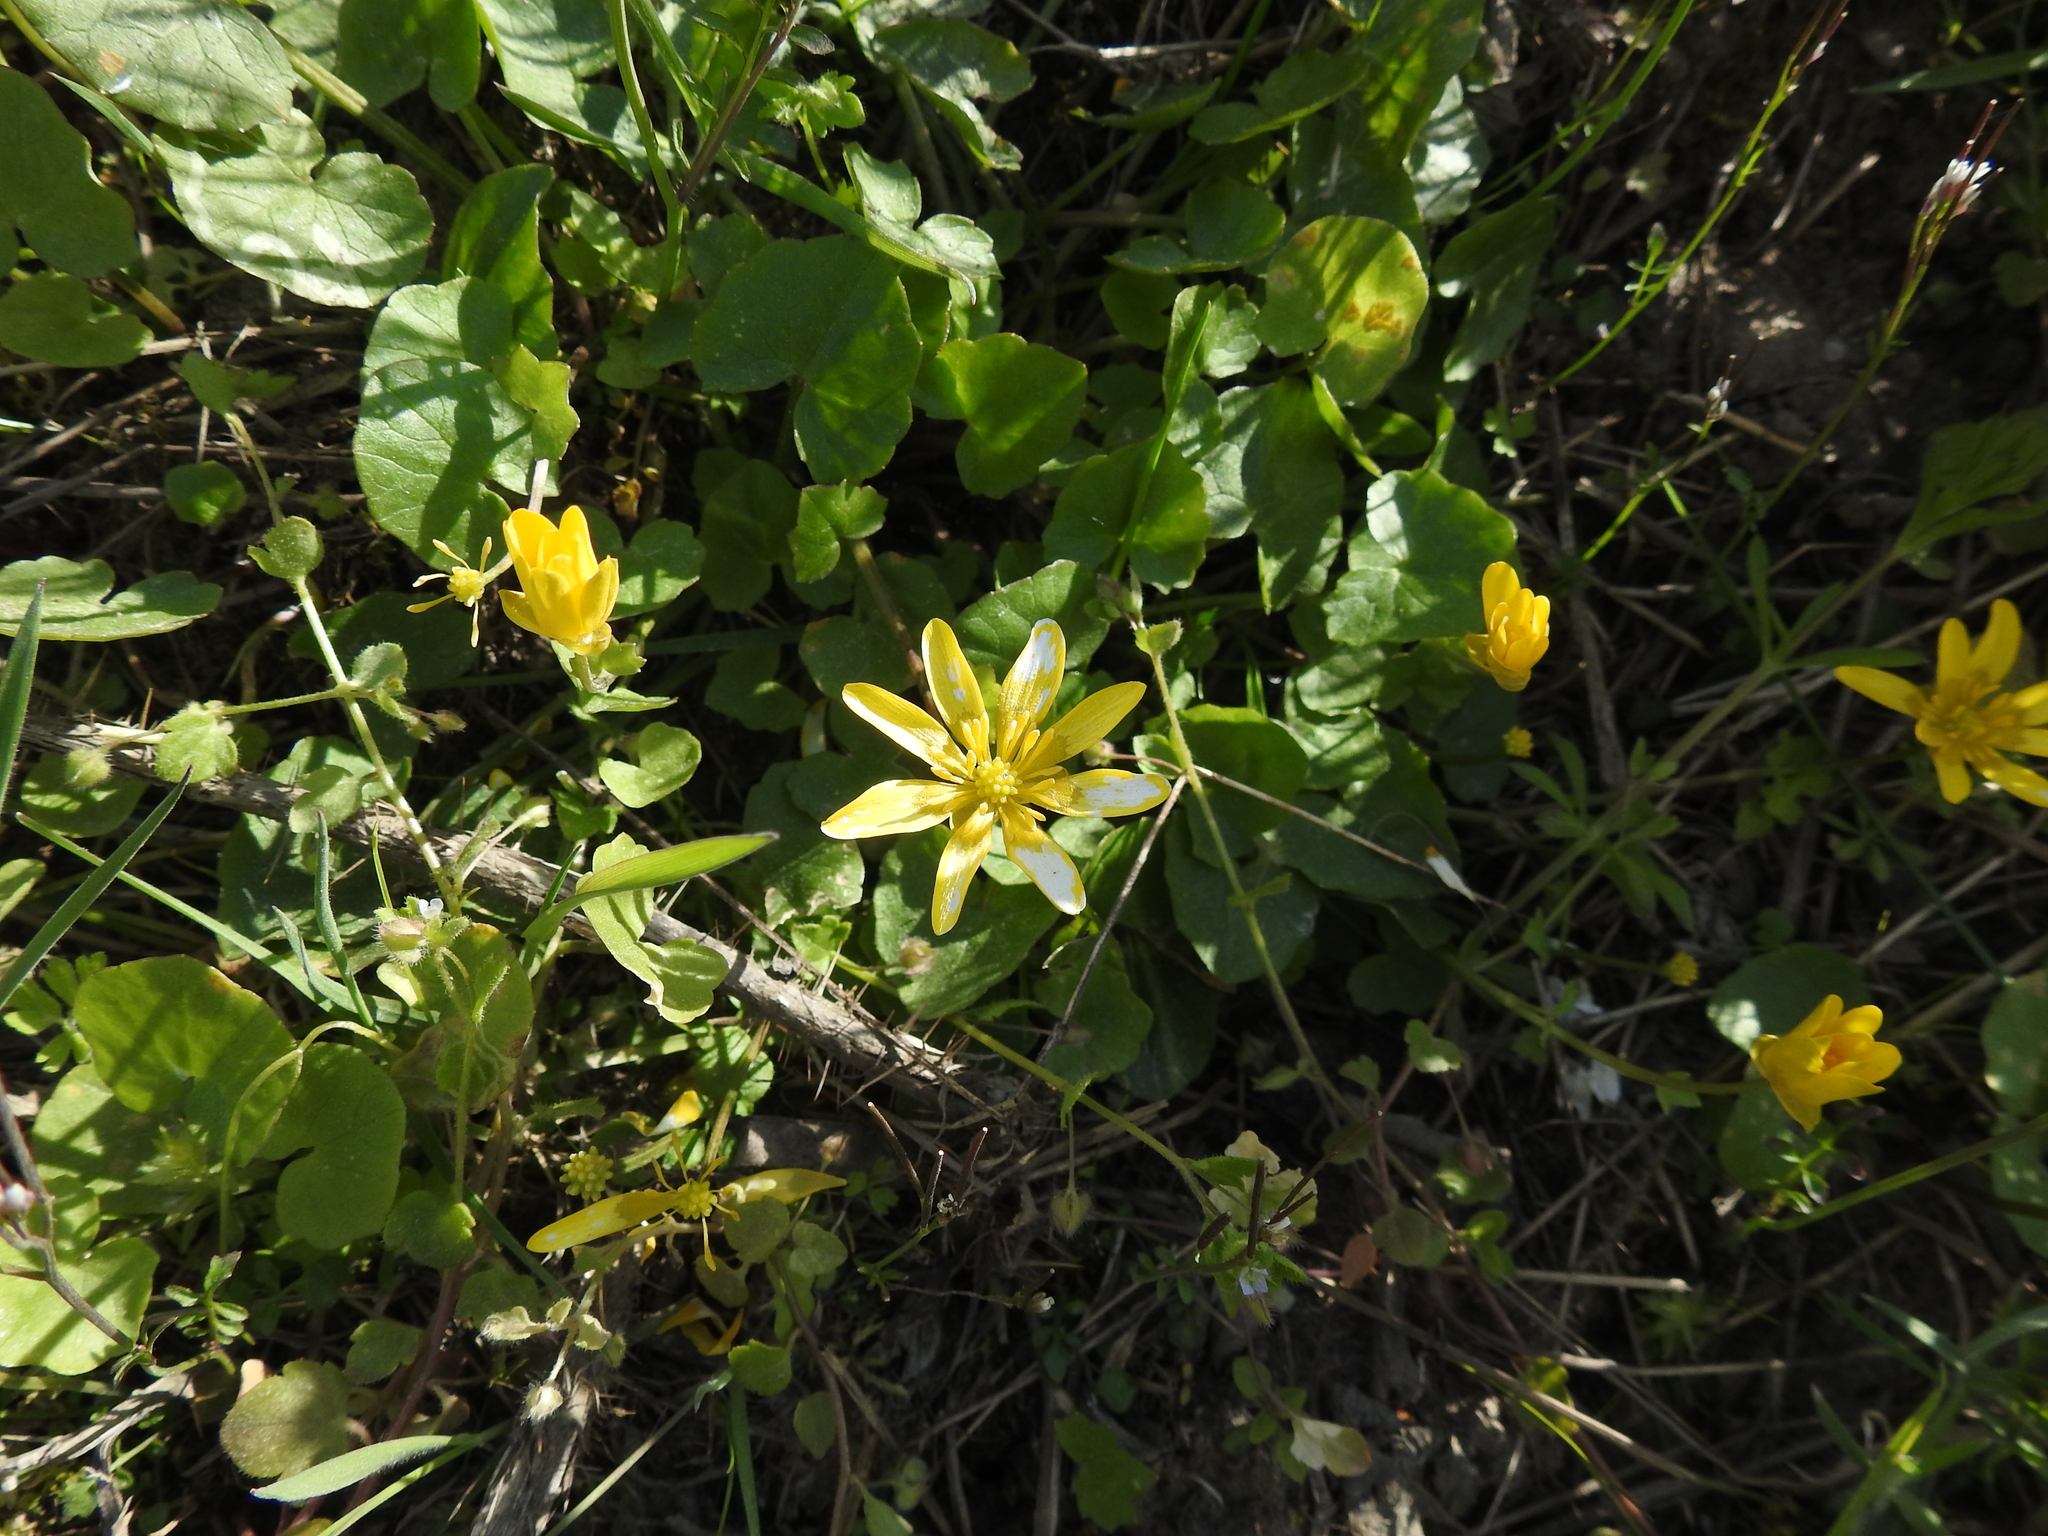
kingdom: Plantae
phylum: Tracheophyta
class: Magnoliopsida
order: Ranunculales
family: Ranunculaceae
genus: Ficaria
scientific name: Ficaria verna
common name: Lesser celandine
